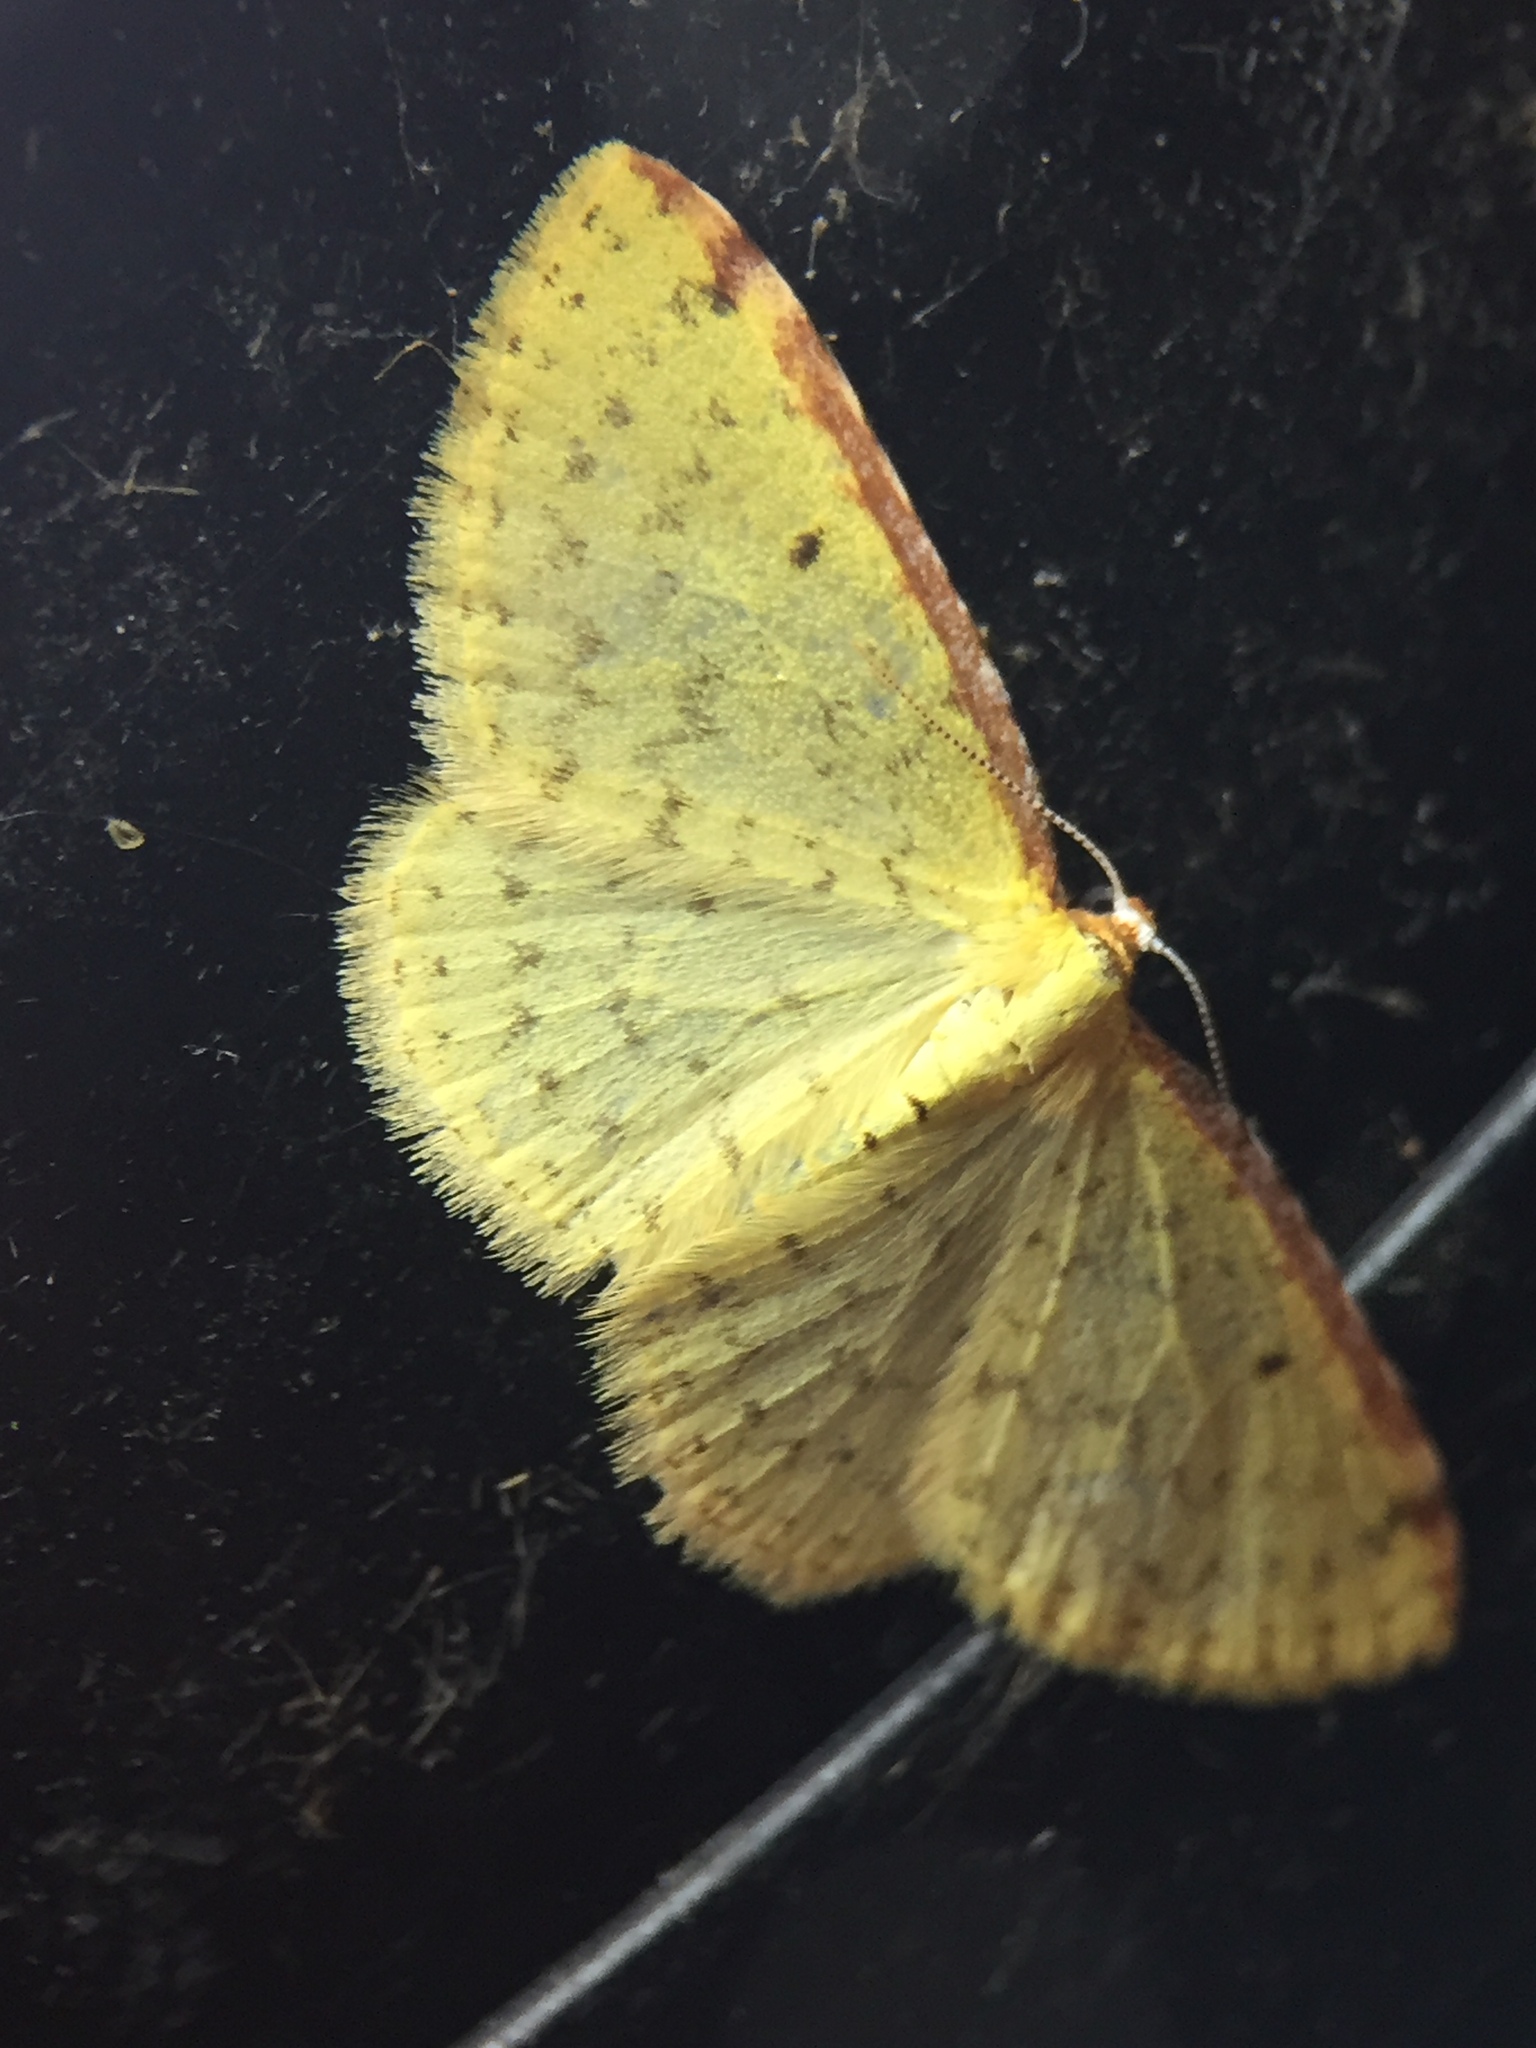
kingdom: Animalia
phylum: Arthropoda
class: Insecta
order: Lepidoptera
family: Geometridae
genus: Epiphryne
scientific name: Epiphryne undosata
